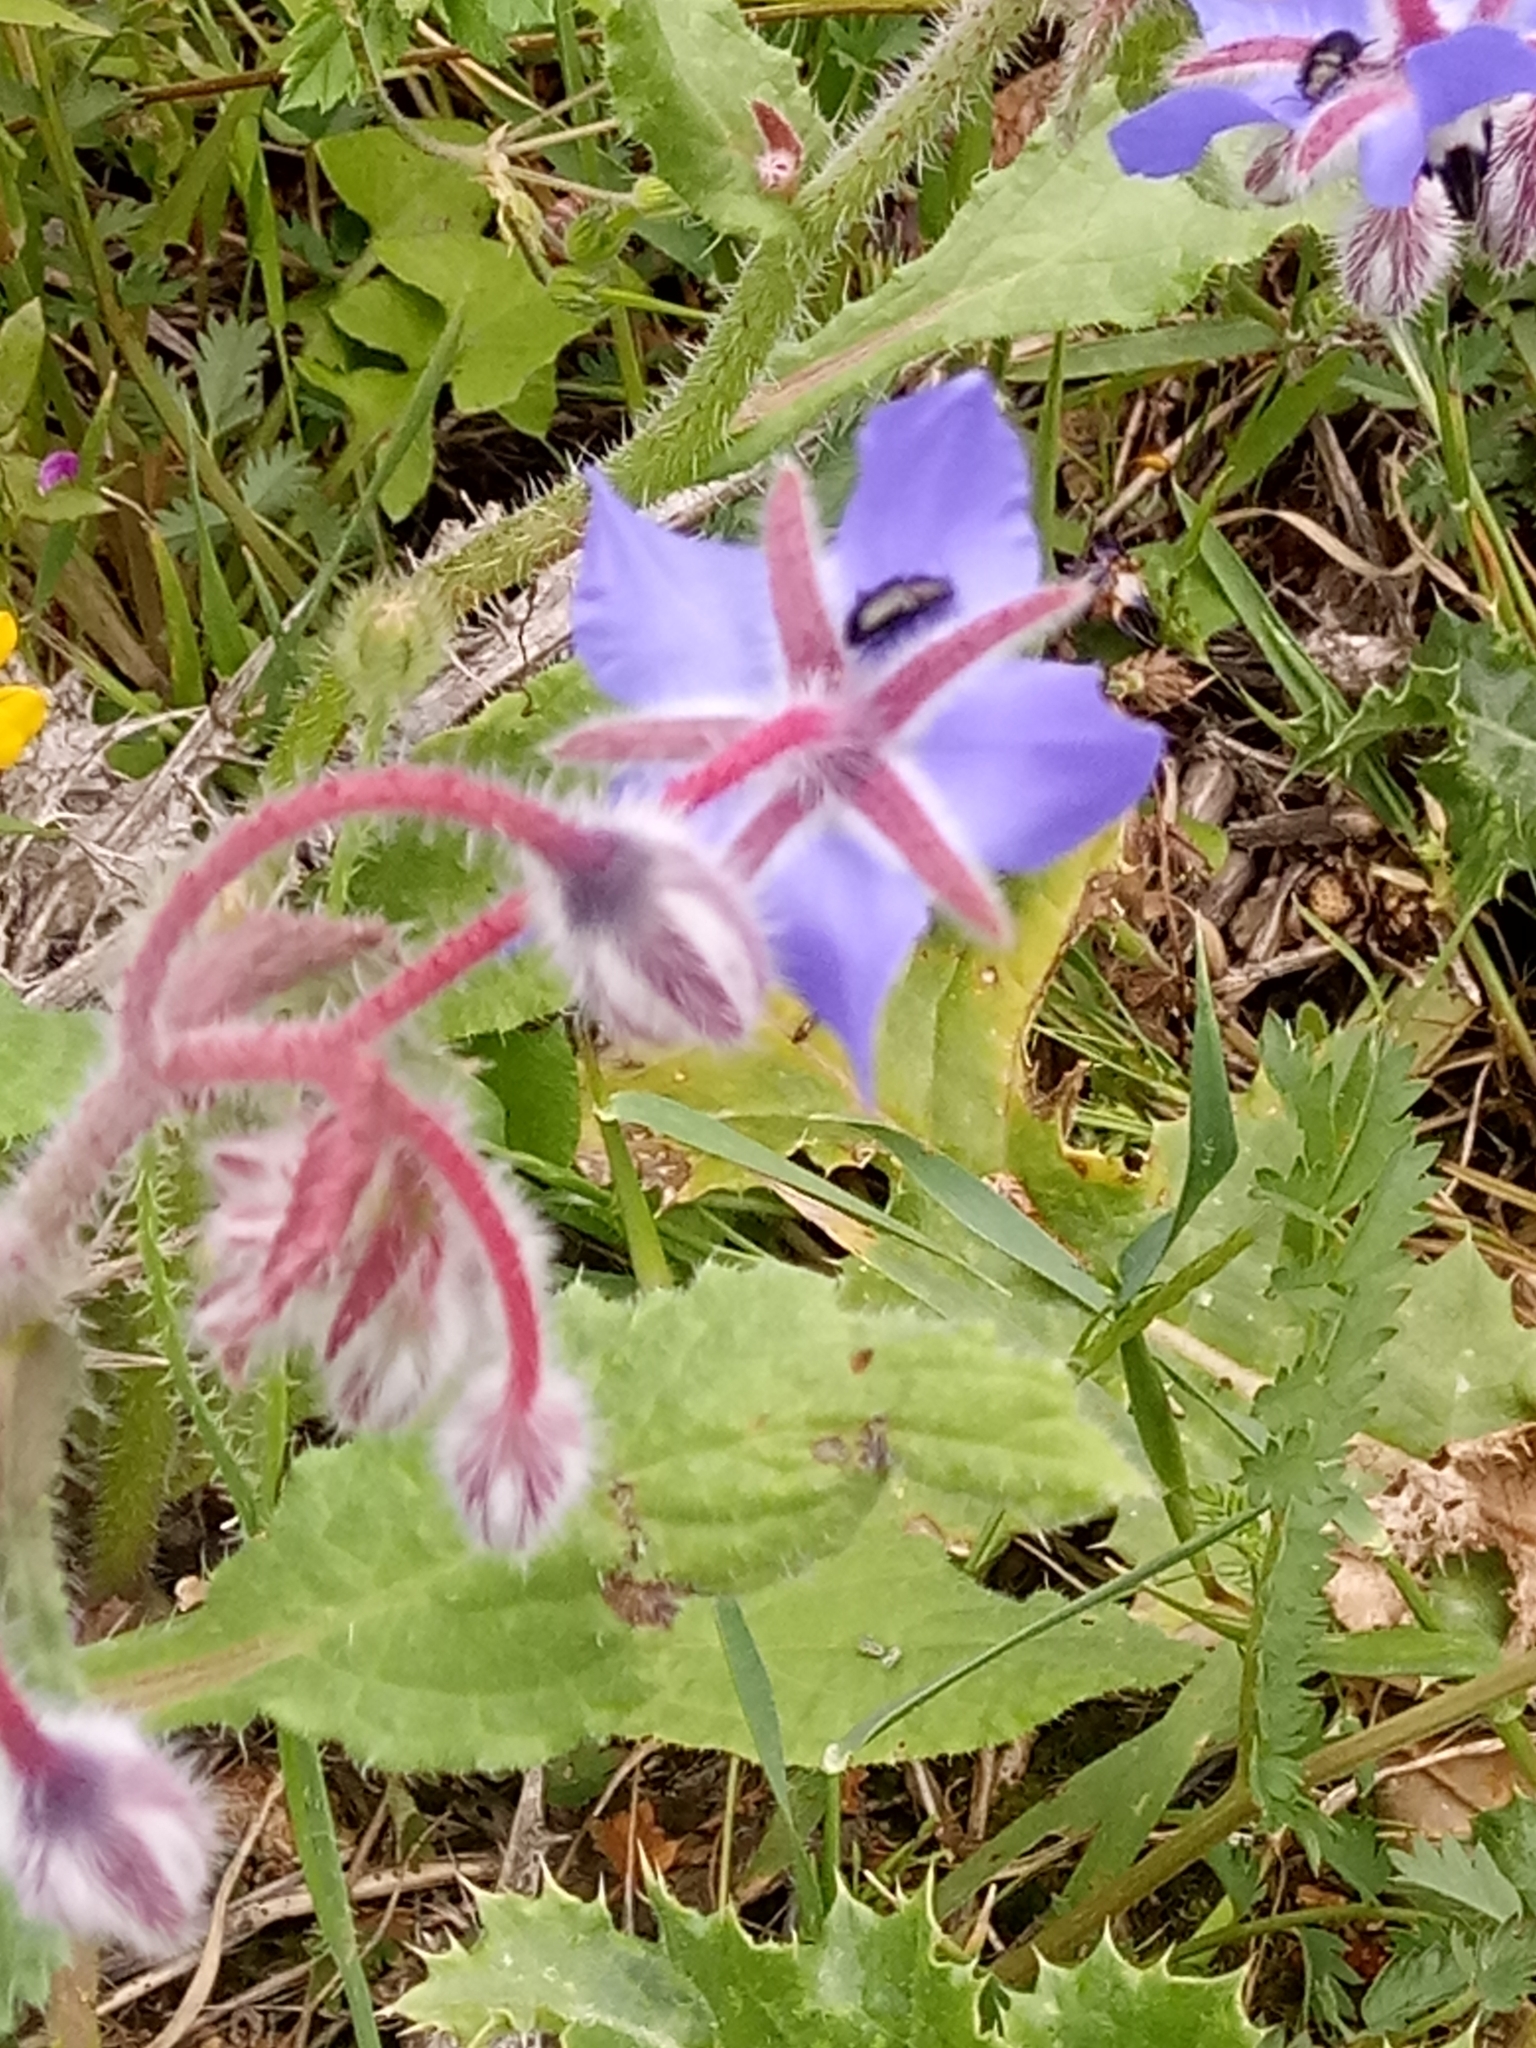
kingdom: Plantae
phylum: Tracheophyta
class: Magnoliopsida
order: Boraginales
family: Boraginaceae
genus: Borago
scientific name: Borago officinalis
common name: Borage
